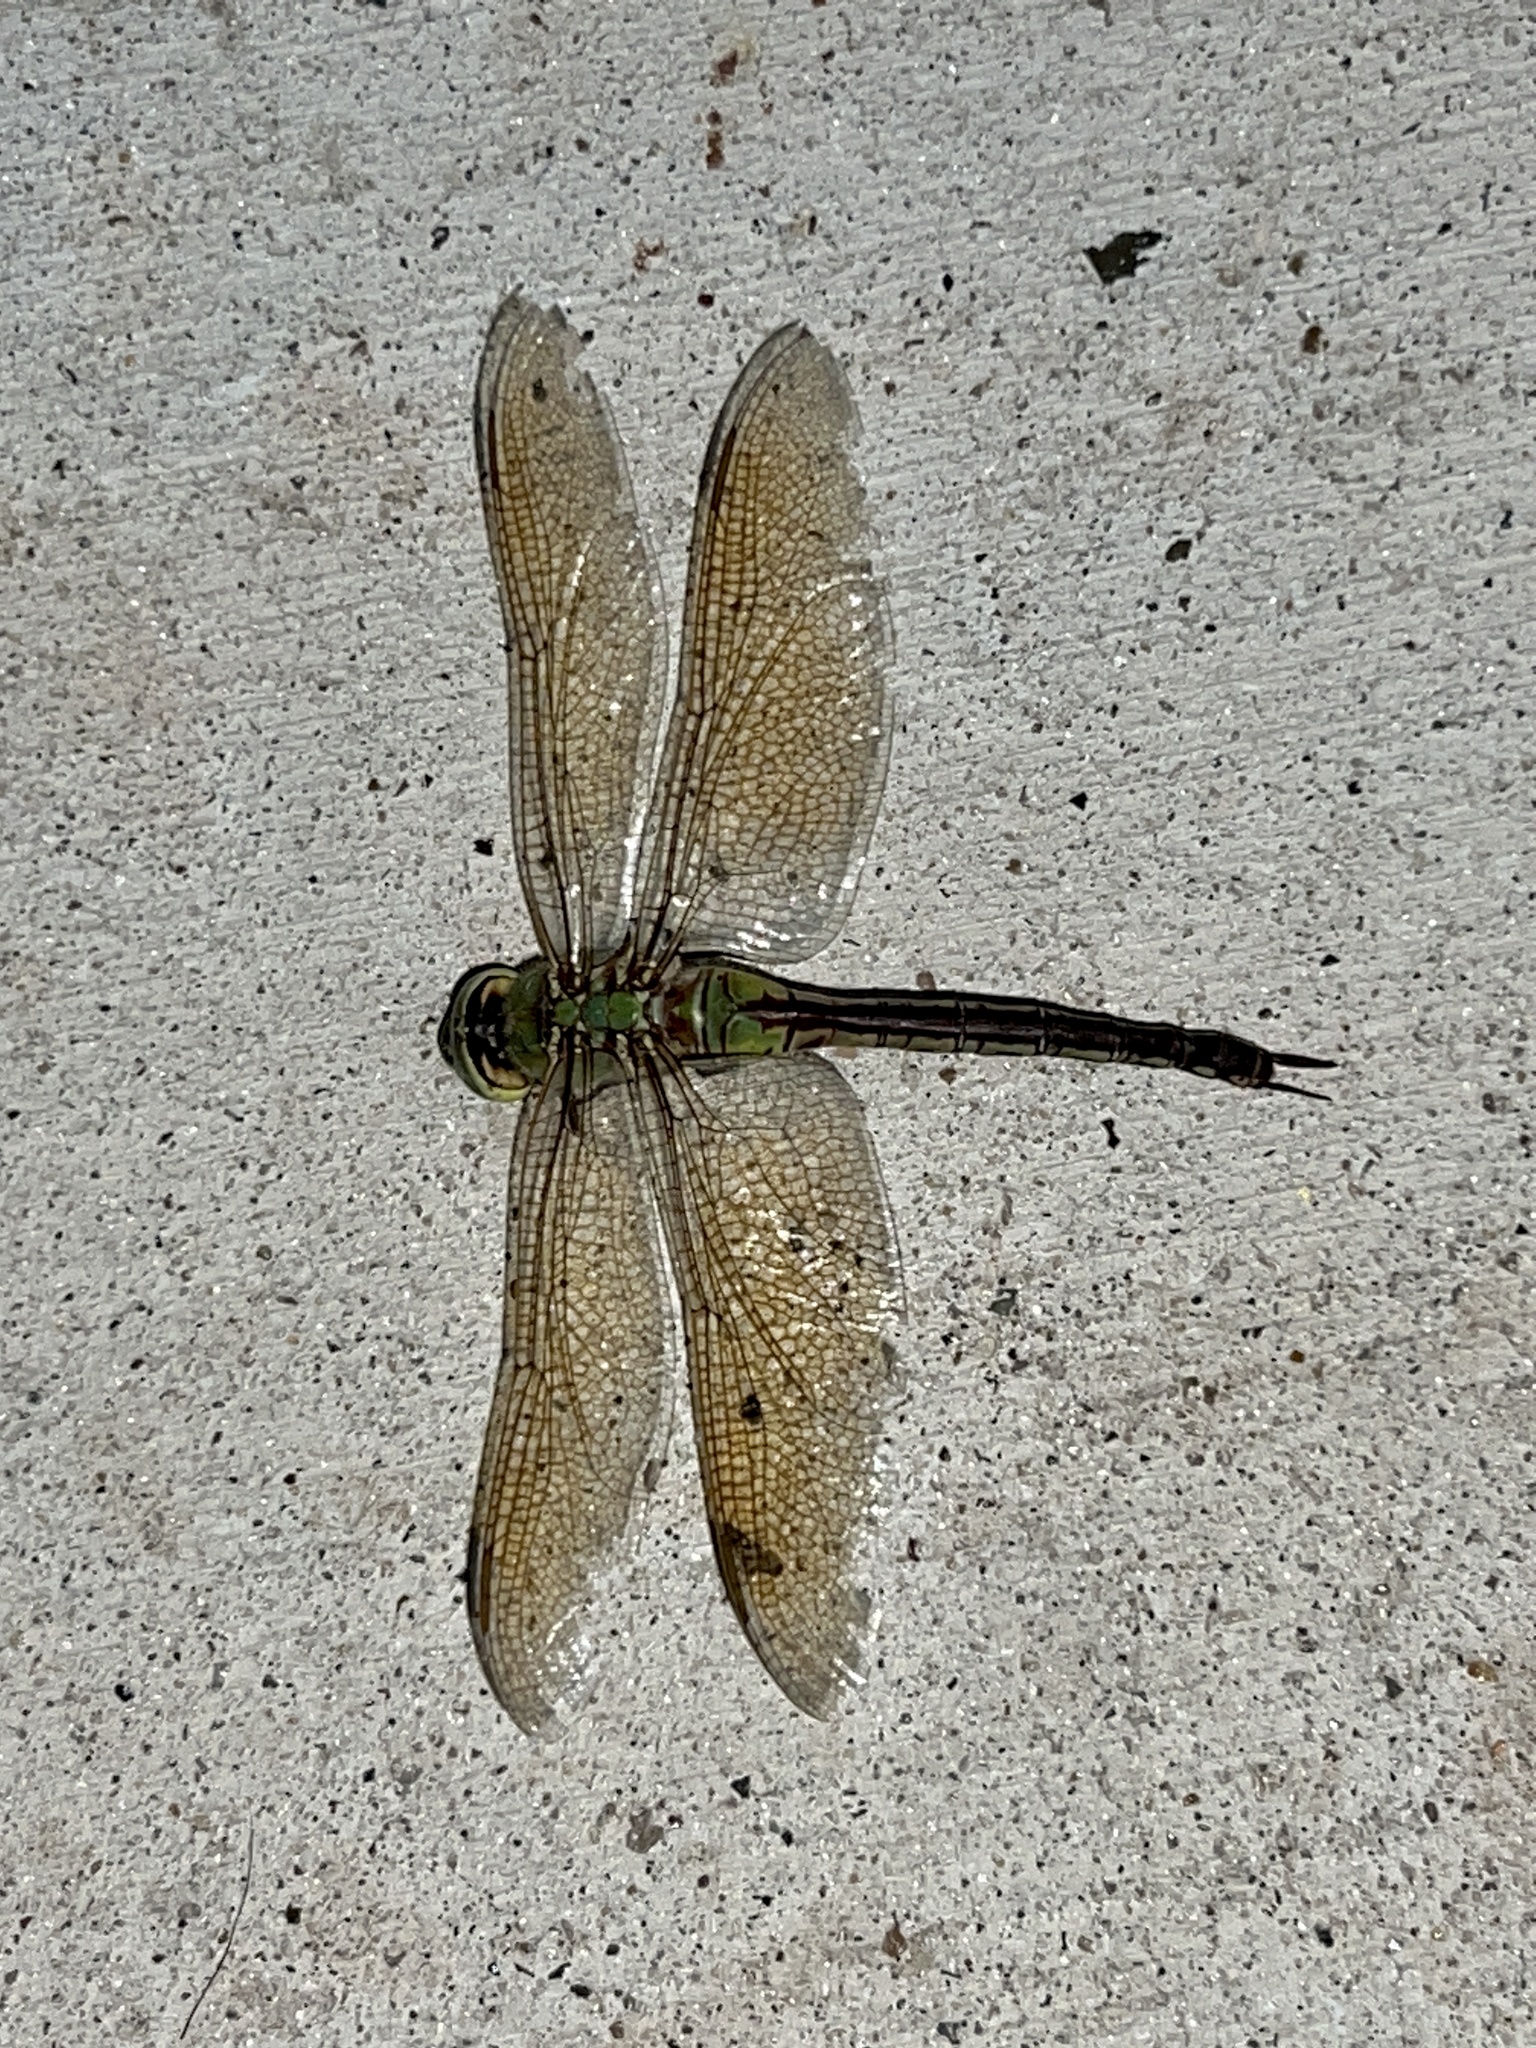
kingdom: Animalia
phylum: Arthropoda
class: Insecta
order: Odonata
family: Aeshnidae
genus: Anax
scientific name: Anax junius
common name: Common green darner
